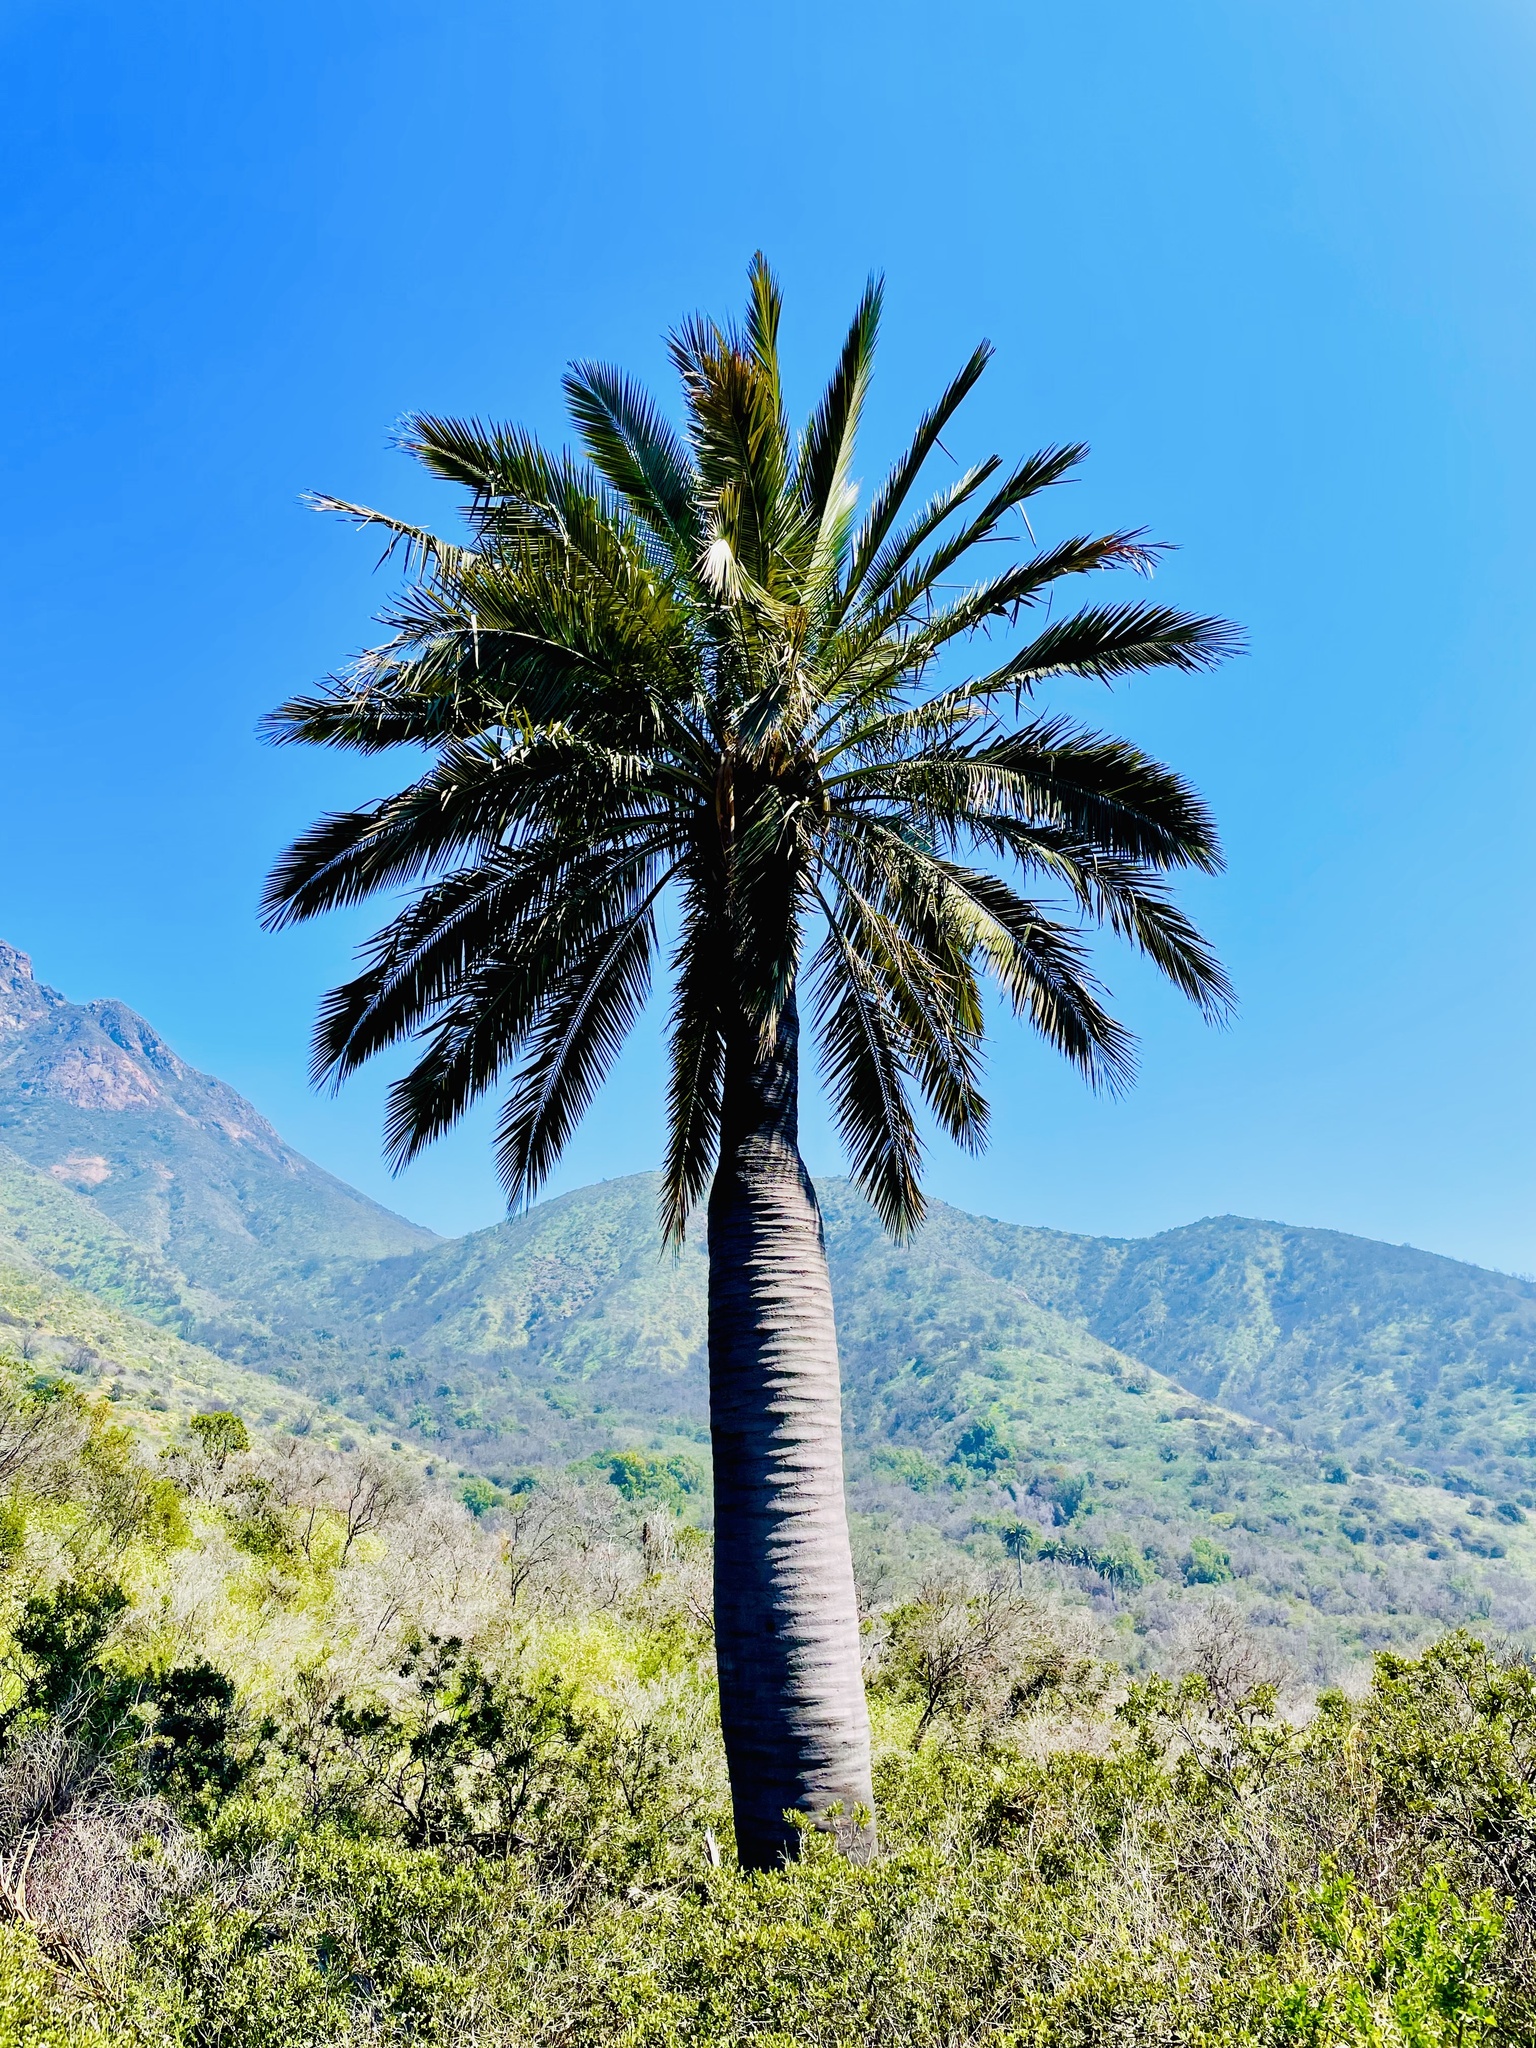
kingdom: Plantae
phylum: Tracheophyta
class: Liliopsida
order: Arecales
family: Arecaceae
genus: Jubaea
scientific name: Jubaea chilensis
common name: Coquito palm
